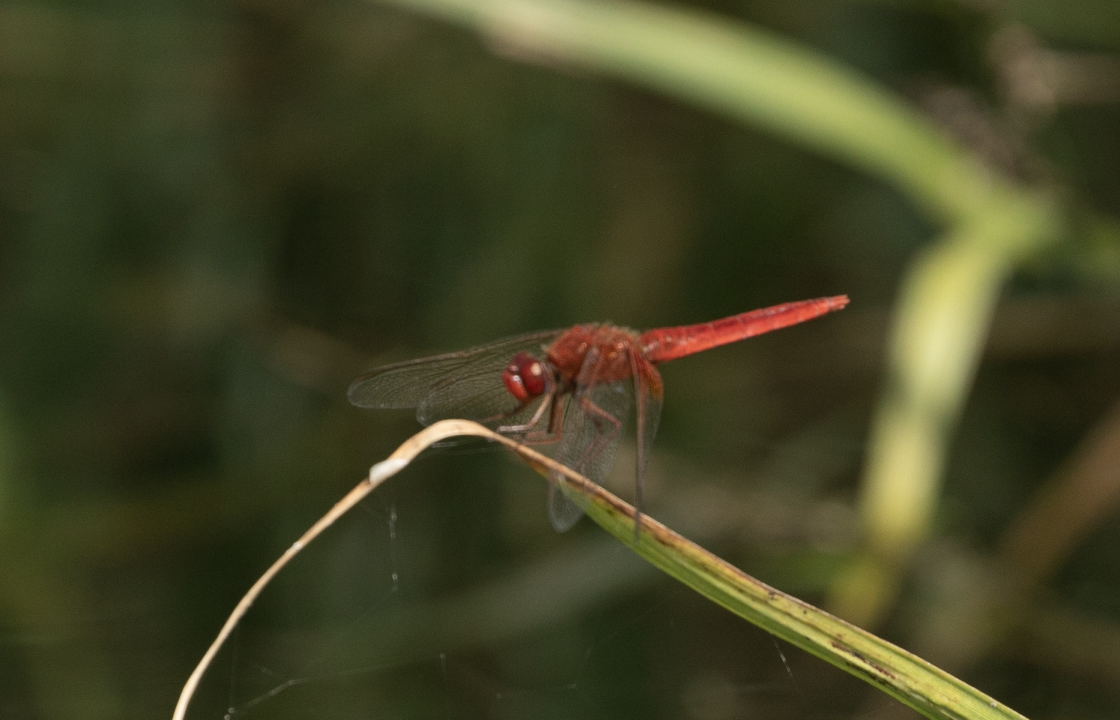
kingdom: Animalia
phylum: Arthropoda
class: Insecta
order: Odonata
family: Libellulidae
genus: Crocothemis
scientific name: Crocothemis erythraea
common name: Scarlet dragonfly
